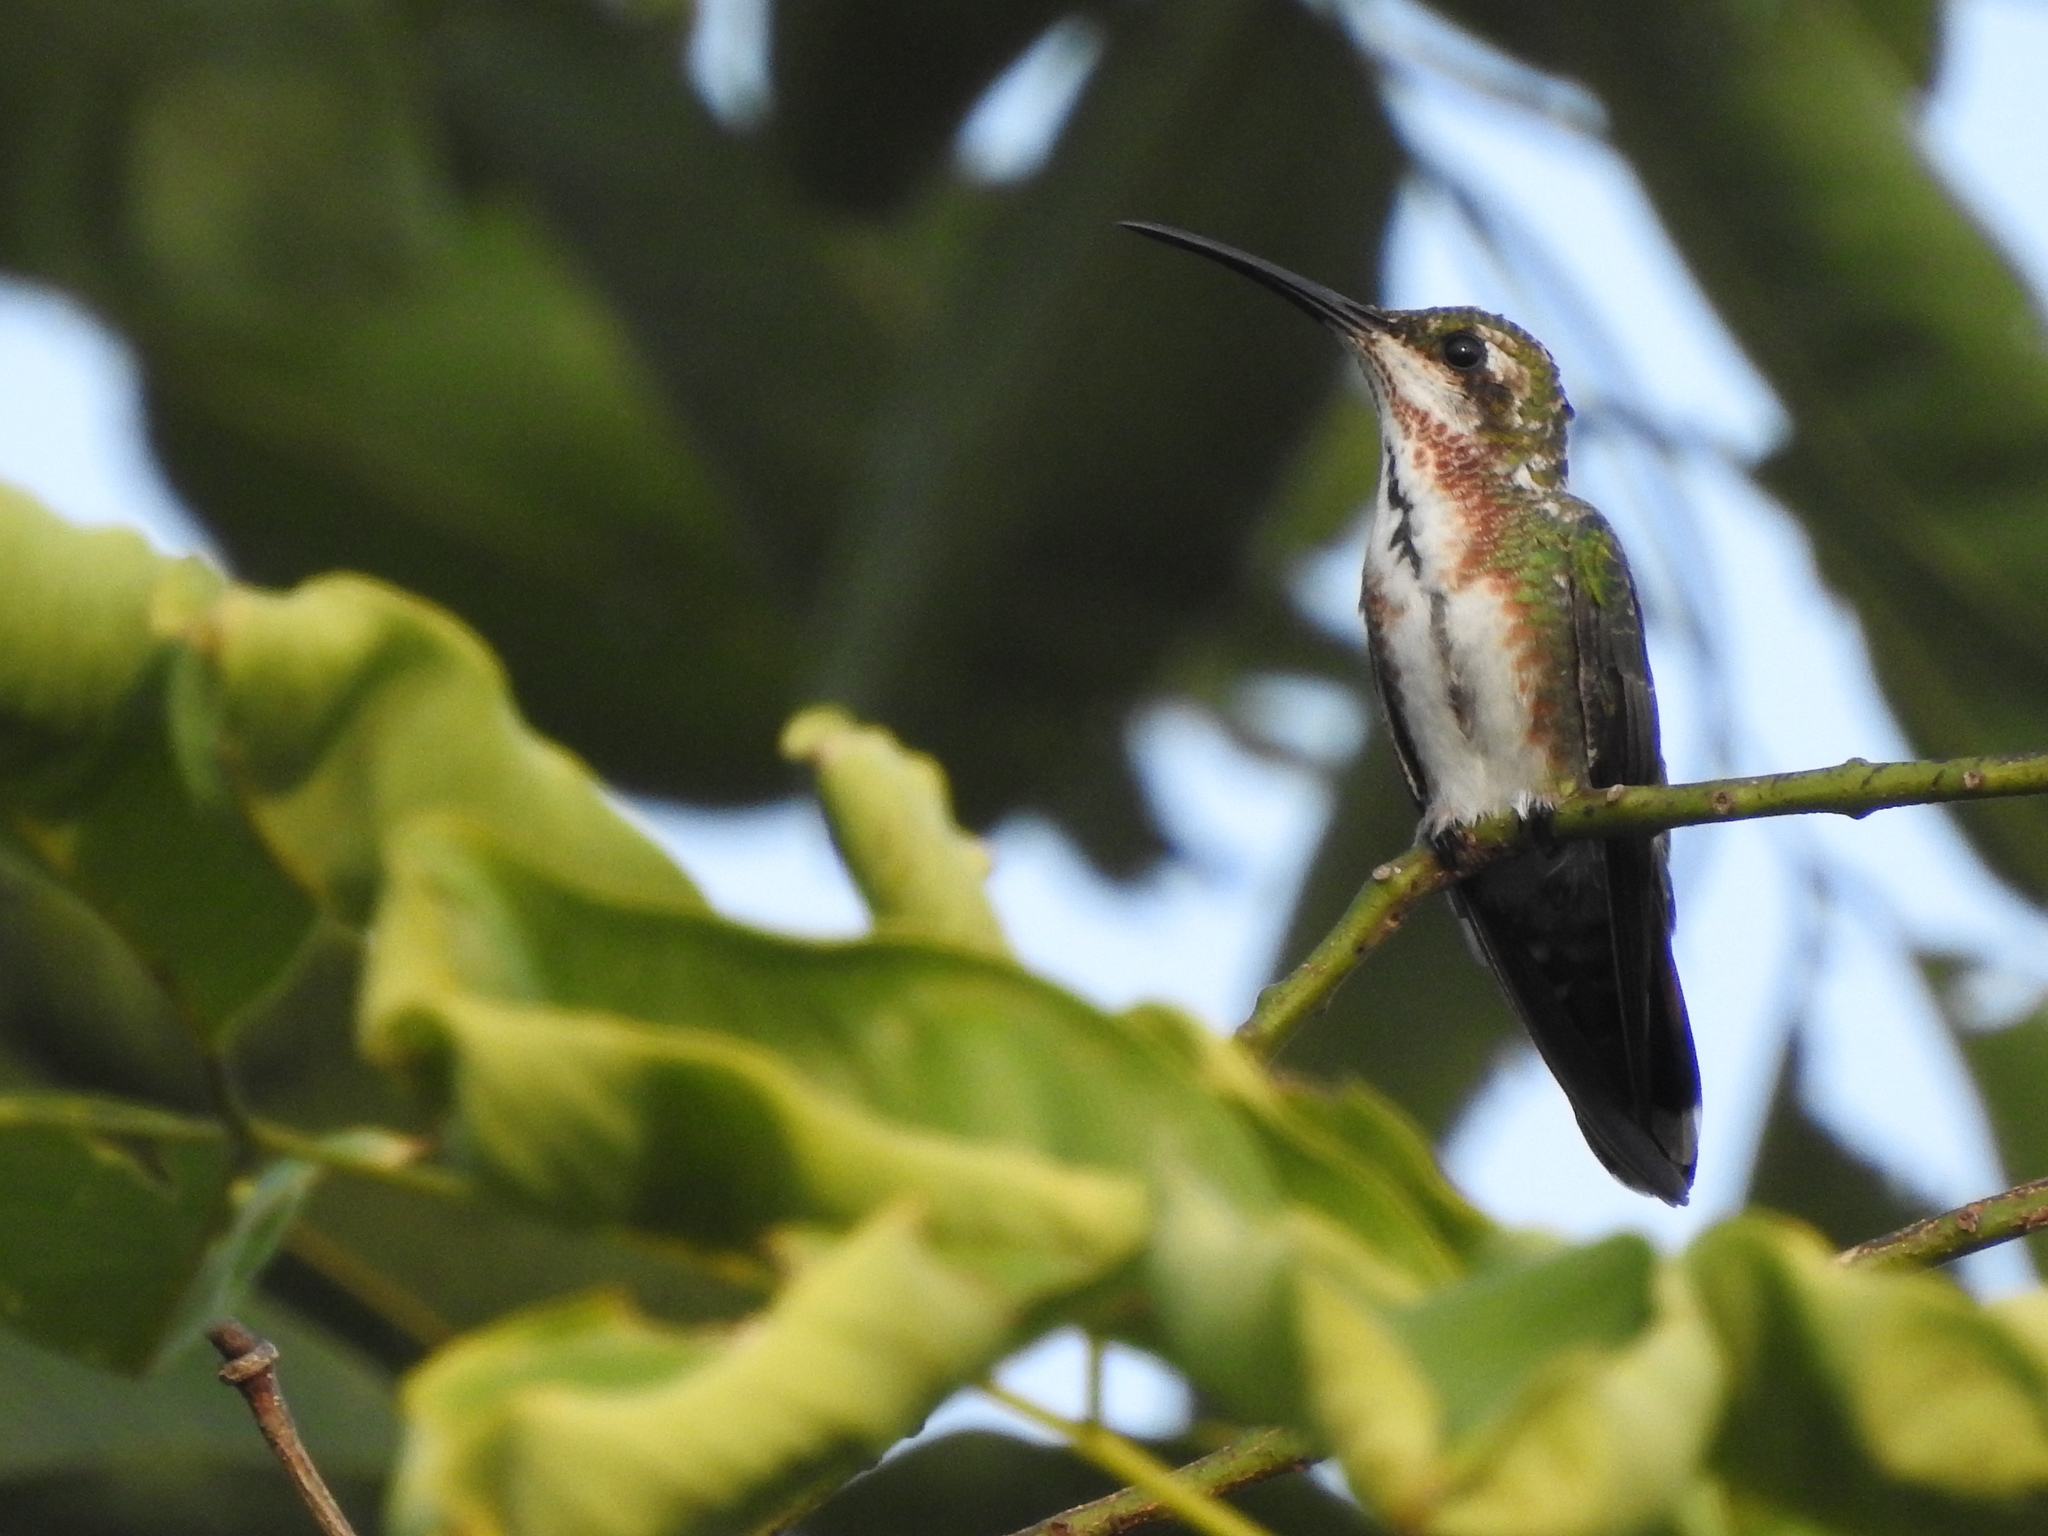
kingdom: Animalia
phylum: Chordata
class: Aves
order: Apodiformes
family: Trochilidae
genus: Anthracothorax
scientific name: Anthracothorax prevostii
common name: Green-breasted mango
